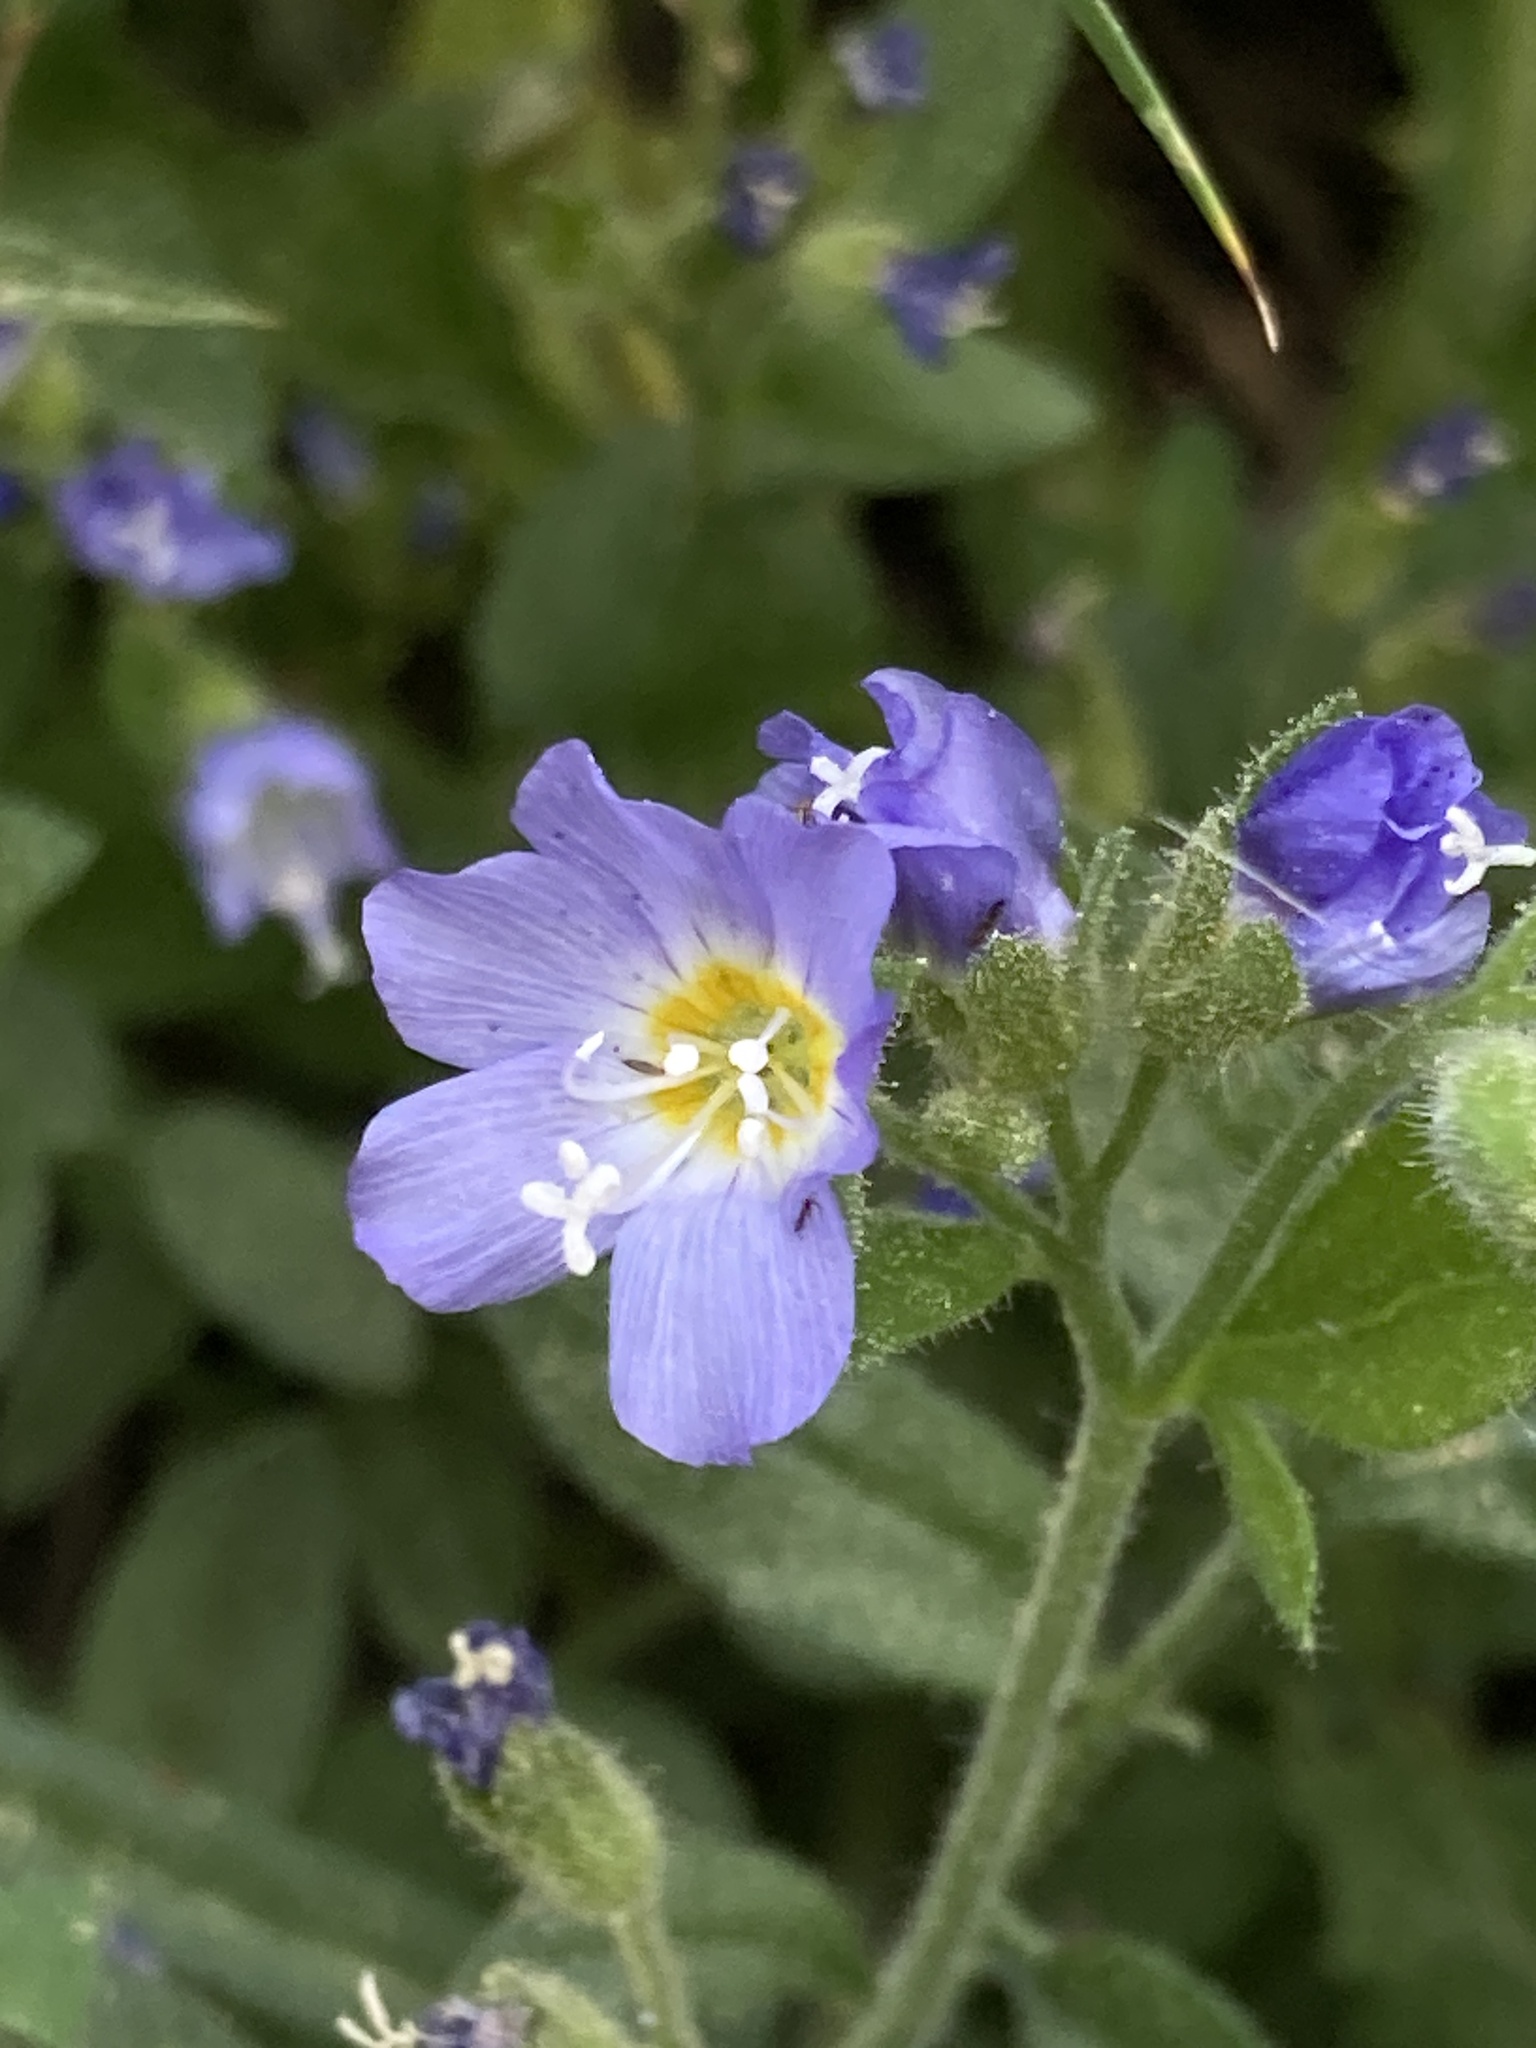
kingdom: Plantae
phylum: Tracheophyta
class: Magnoliopsida
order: Ericales
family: Polemoniaceae
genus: Polemonium
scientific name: Polemonium californicum
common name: California jacob's ladder
